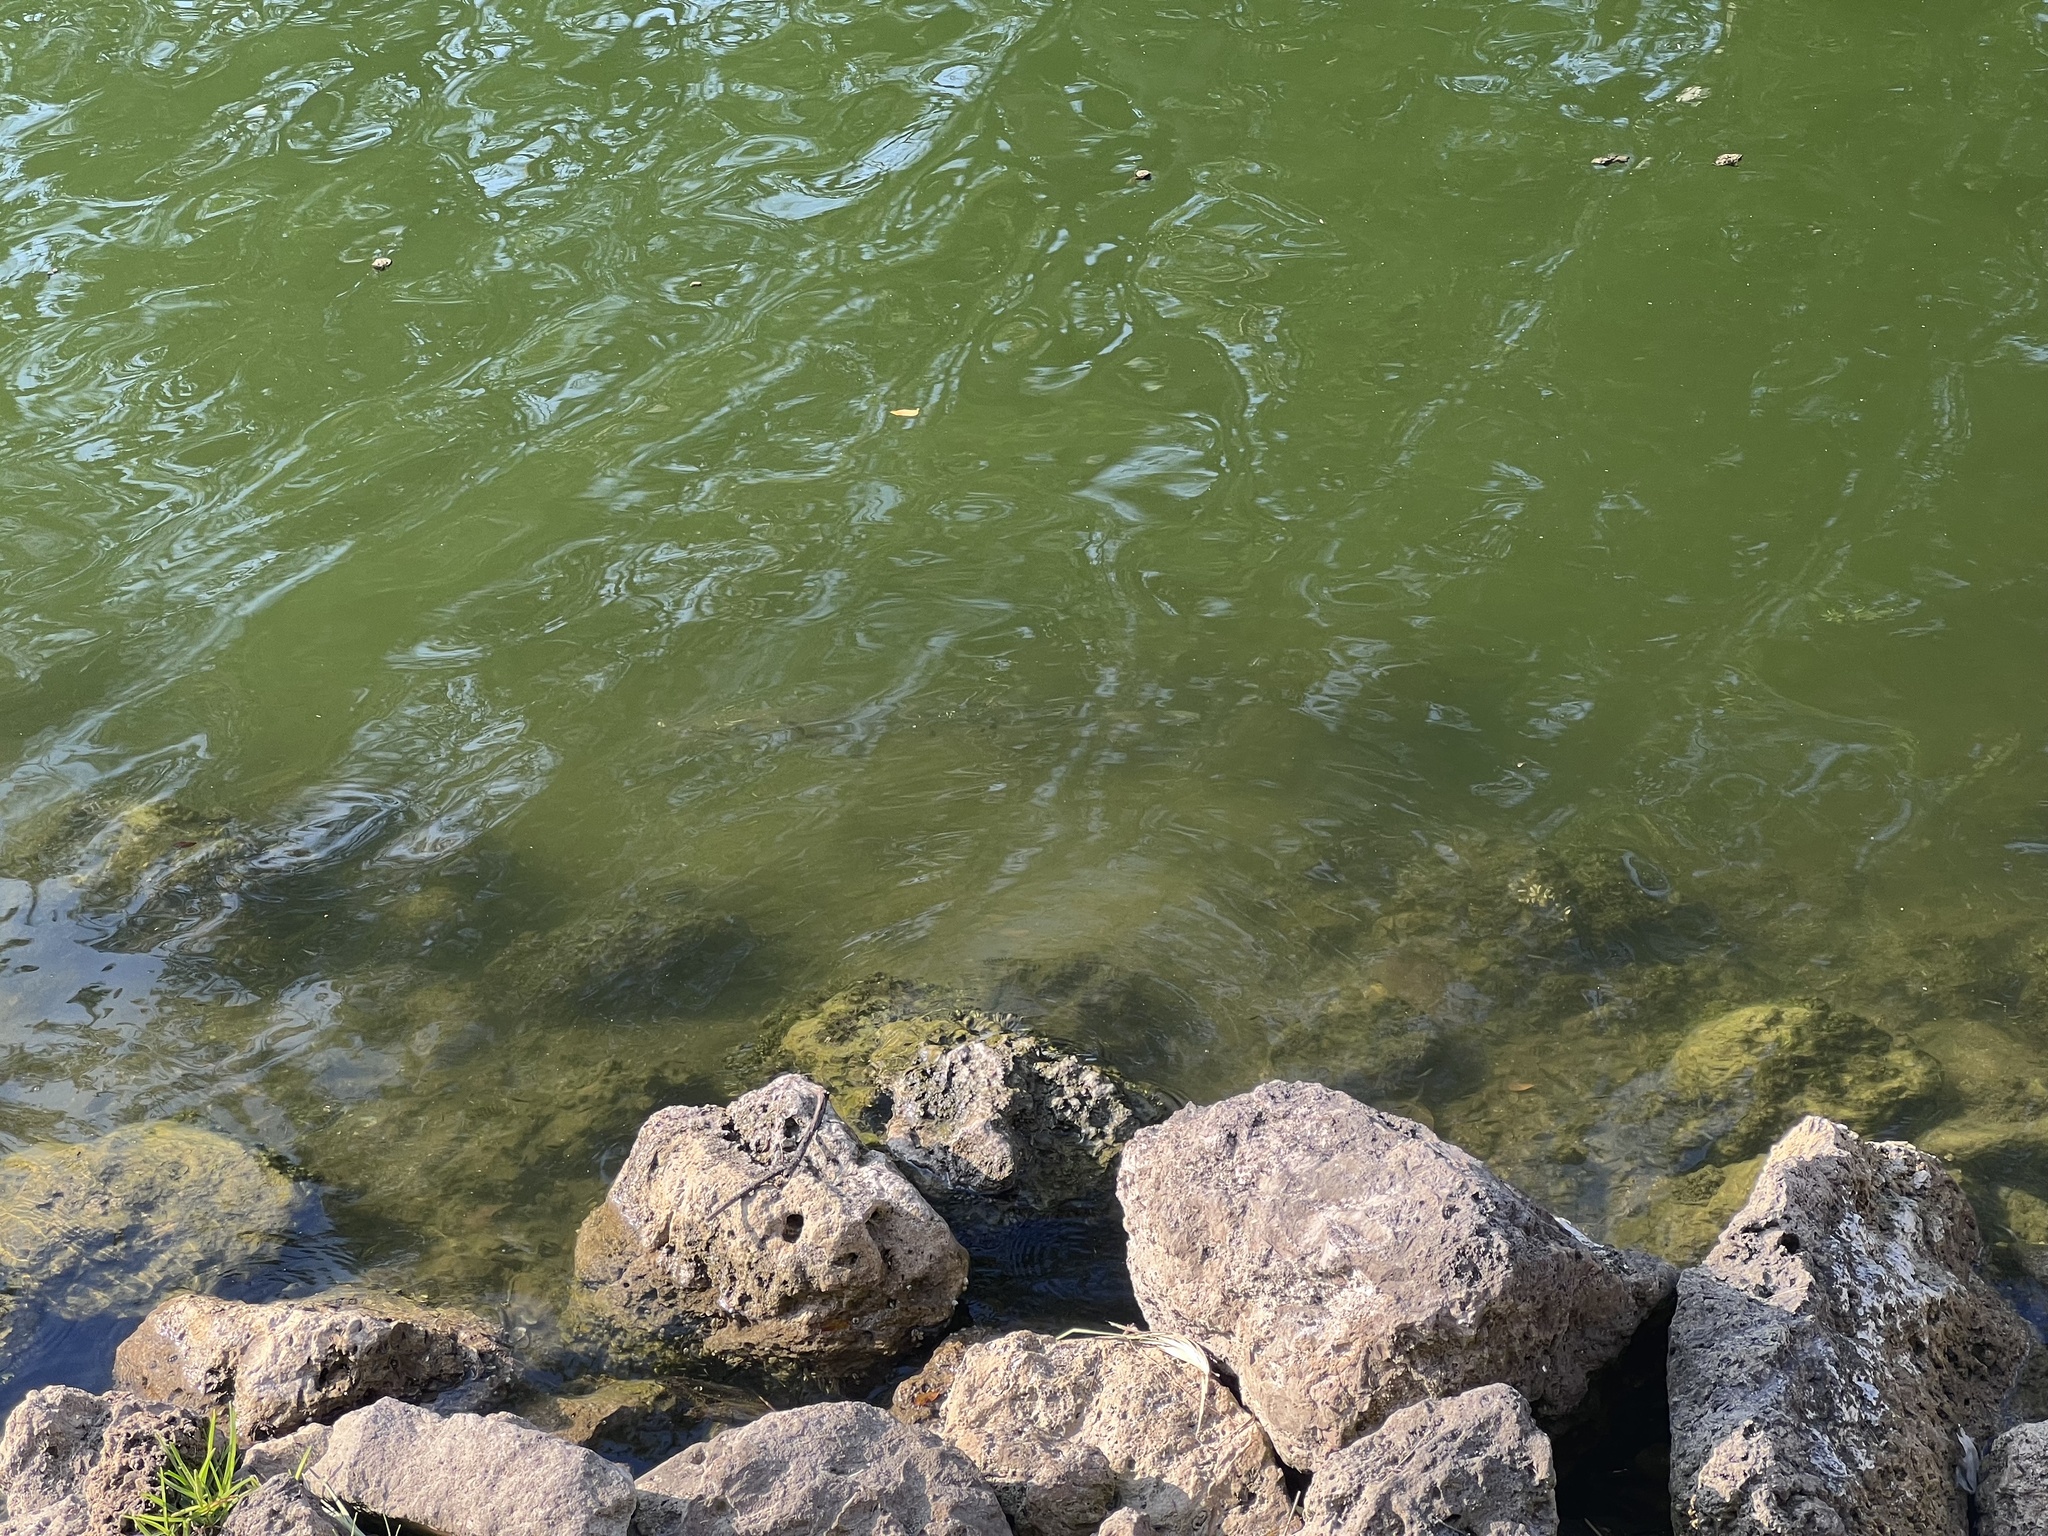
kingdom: Animalia
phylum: Chordata
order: Perciformes
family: Sphyraenidae
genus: Sphyraena
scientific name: Sphyraena barracuda
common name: Great barracuda
